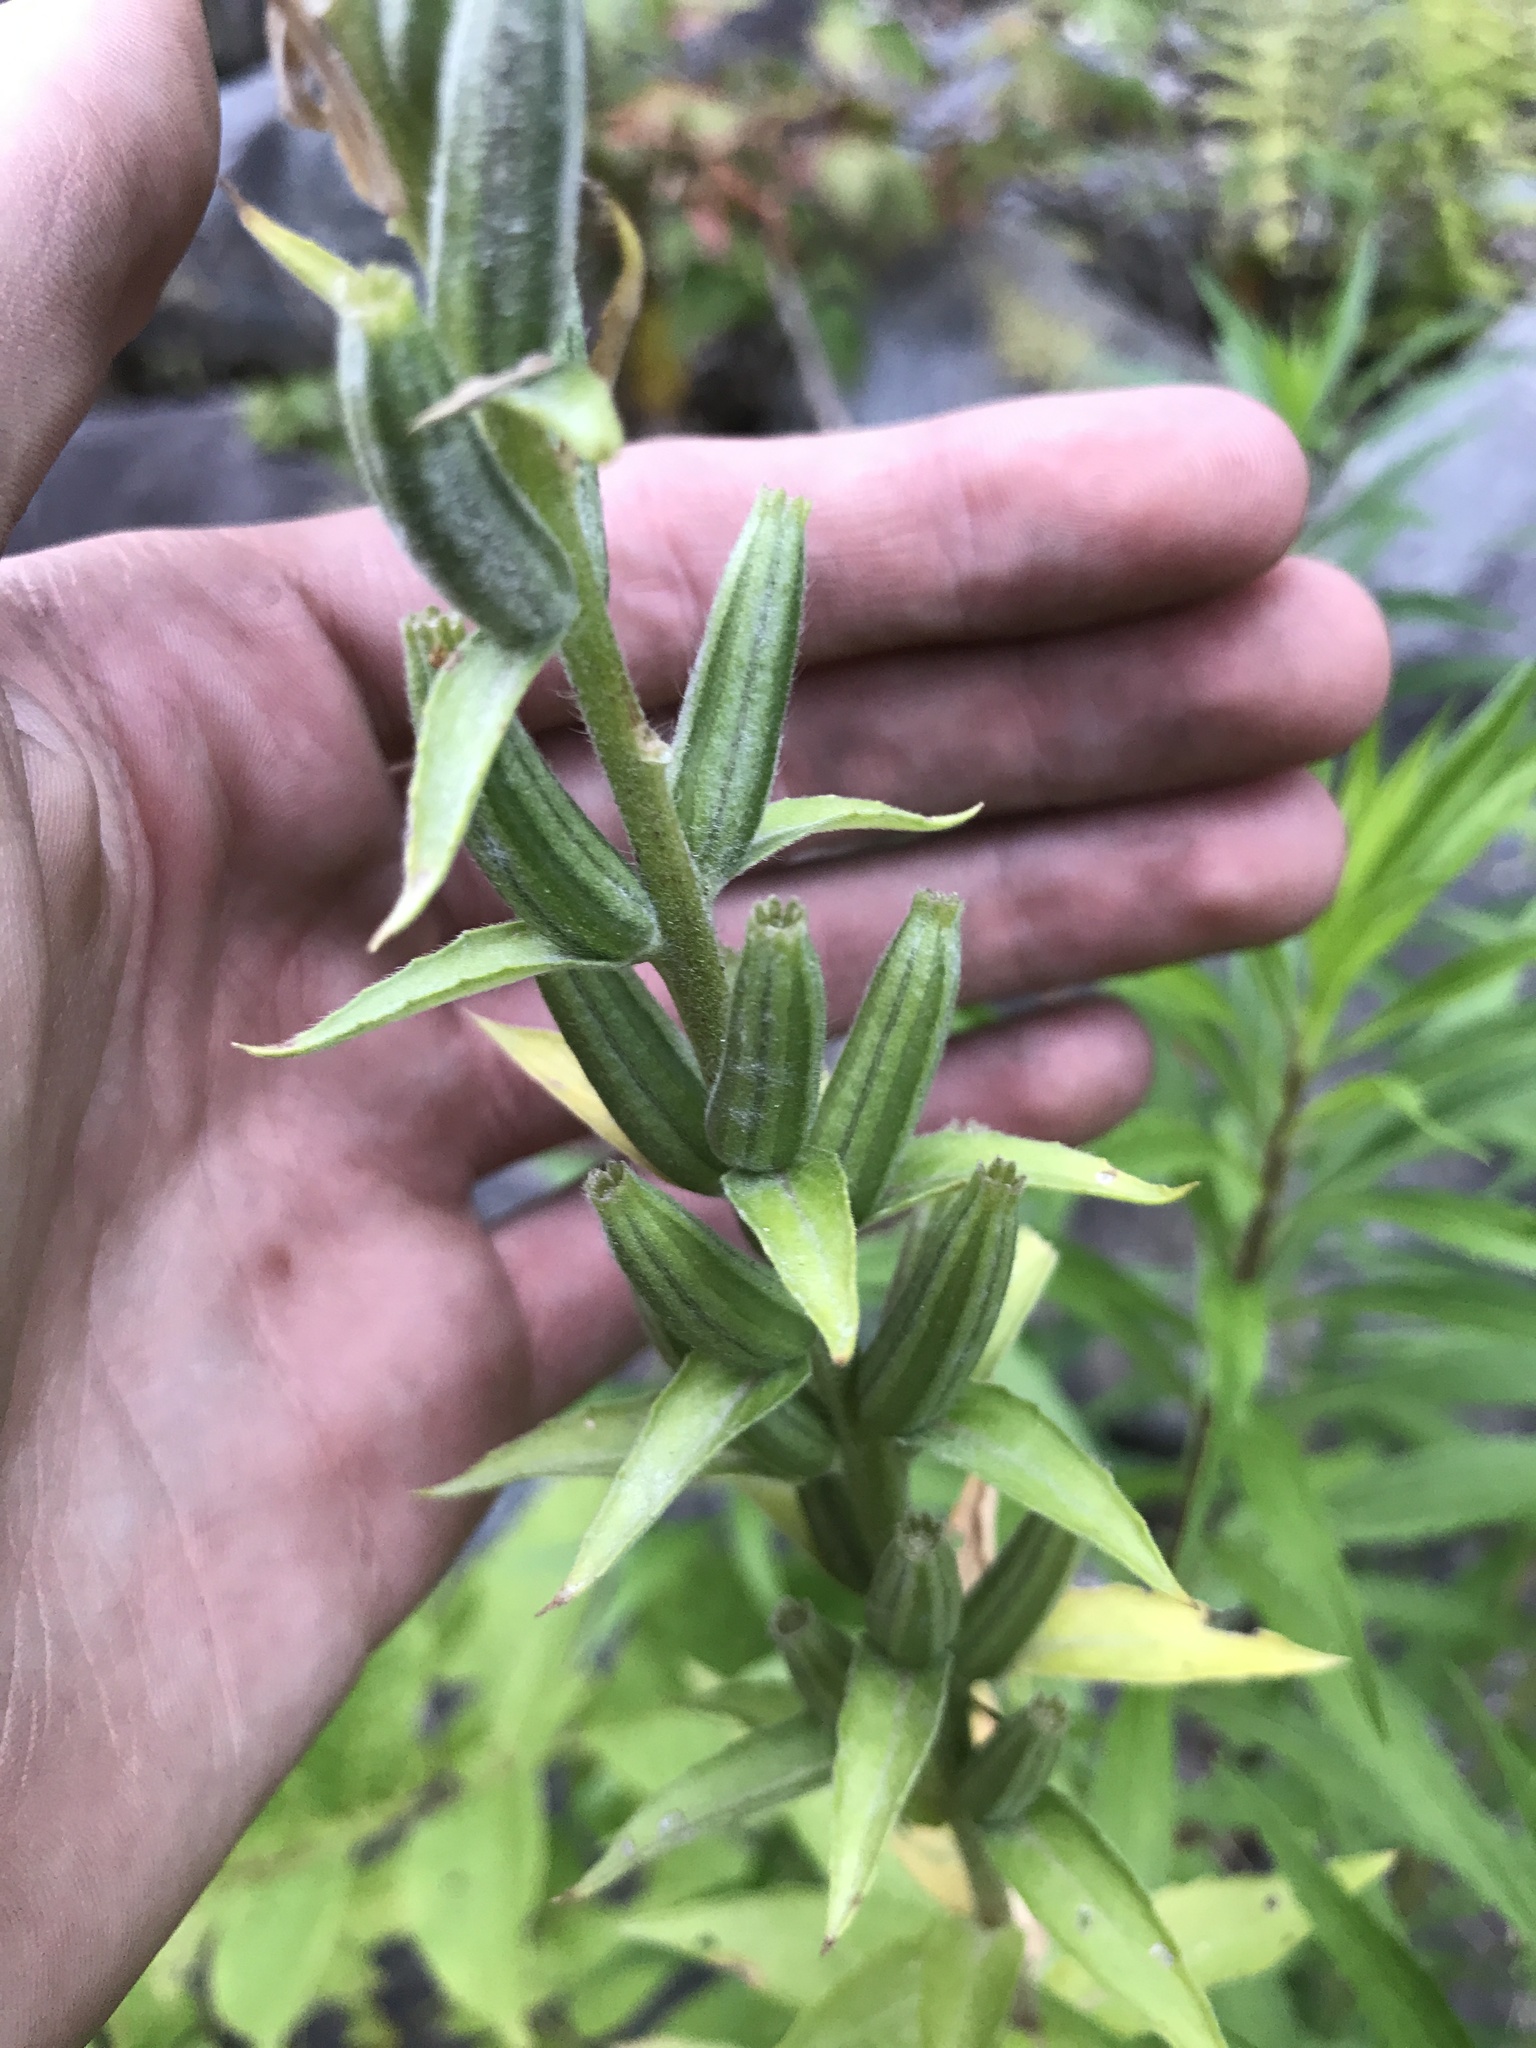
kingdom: Plantae
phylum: Tracheophyta
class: Magnoliopsida
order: Myrtales
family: Onagraceae
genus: Oenothera
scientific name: Oenothera
